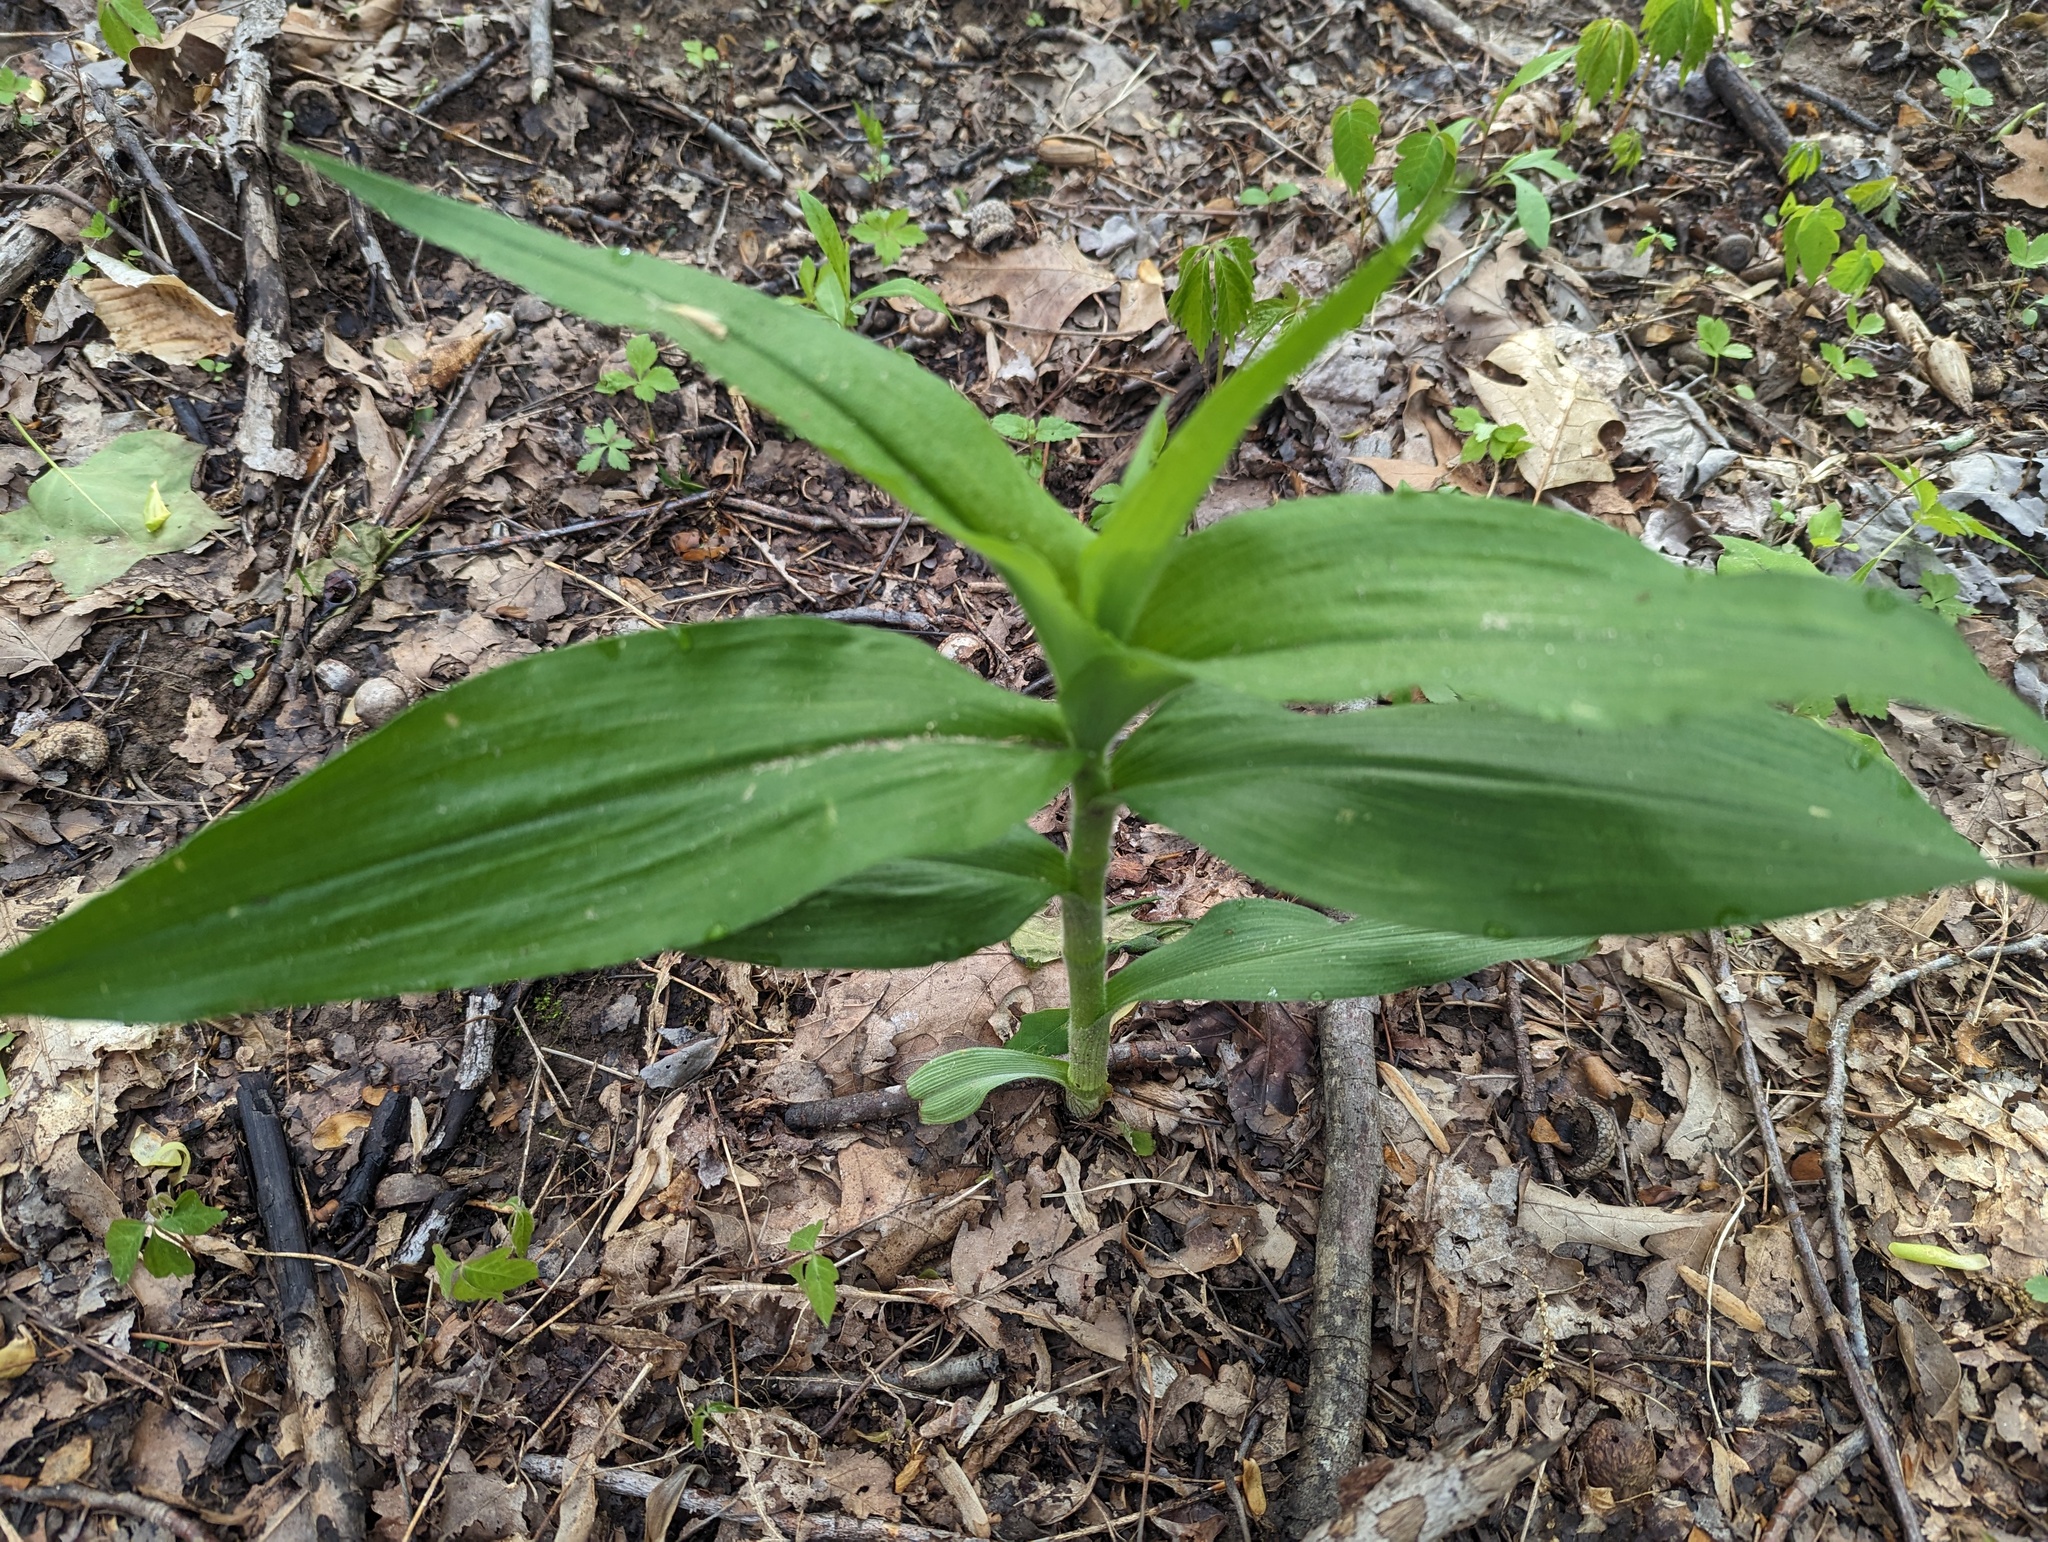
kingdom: Plantae
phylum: Tracheophyta
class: Liliopsida
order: Commelinales
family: Commelinaceae
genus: Tradescantia
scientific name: Tradescantia subaspera
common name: Wide-leaf spiderwort
